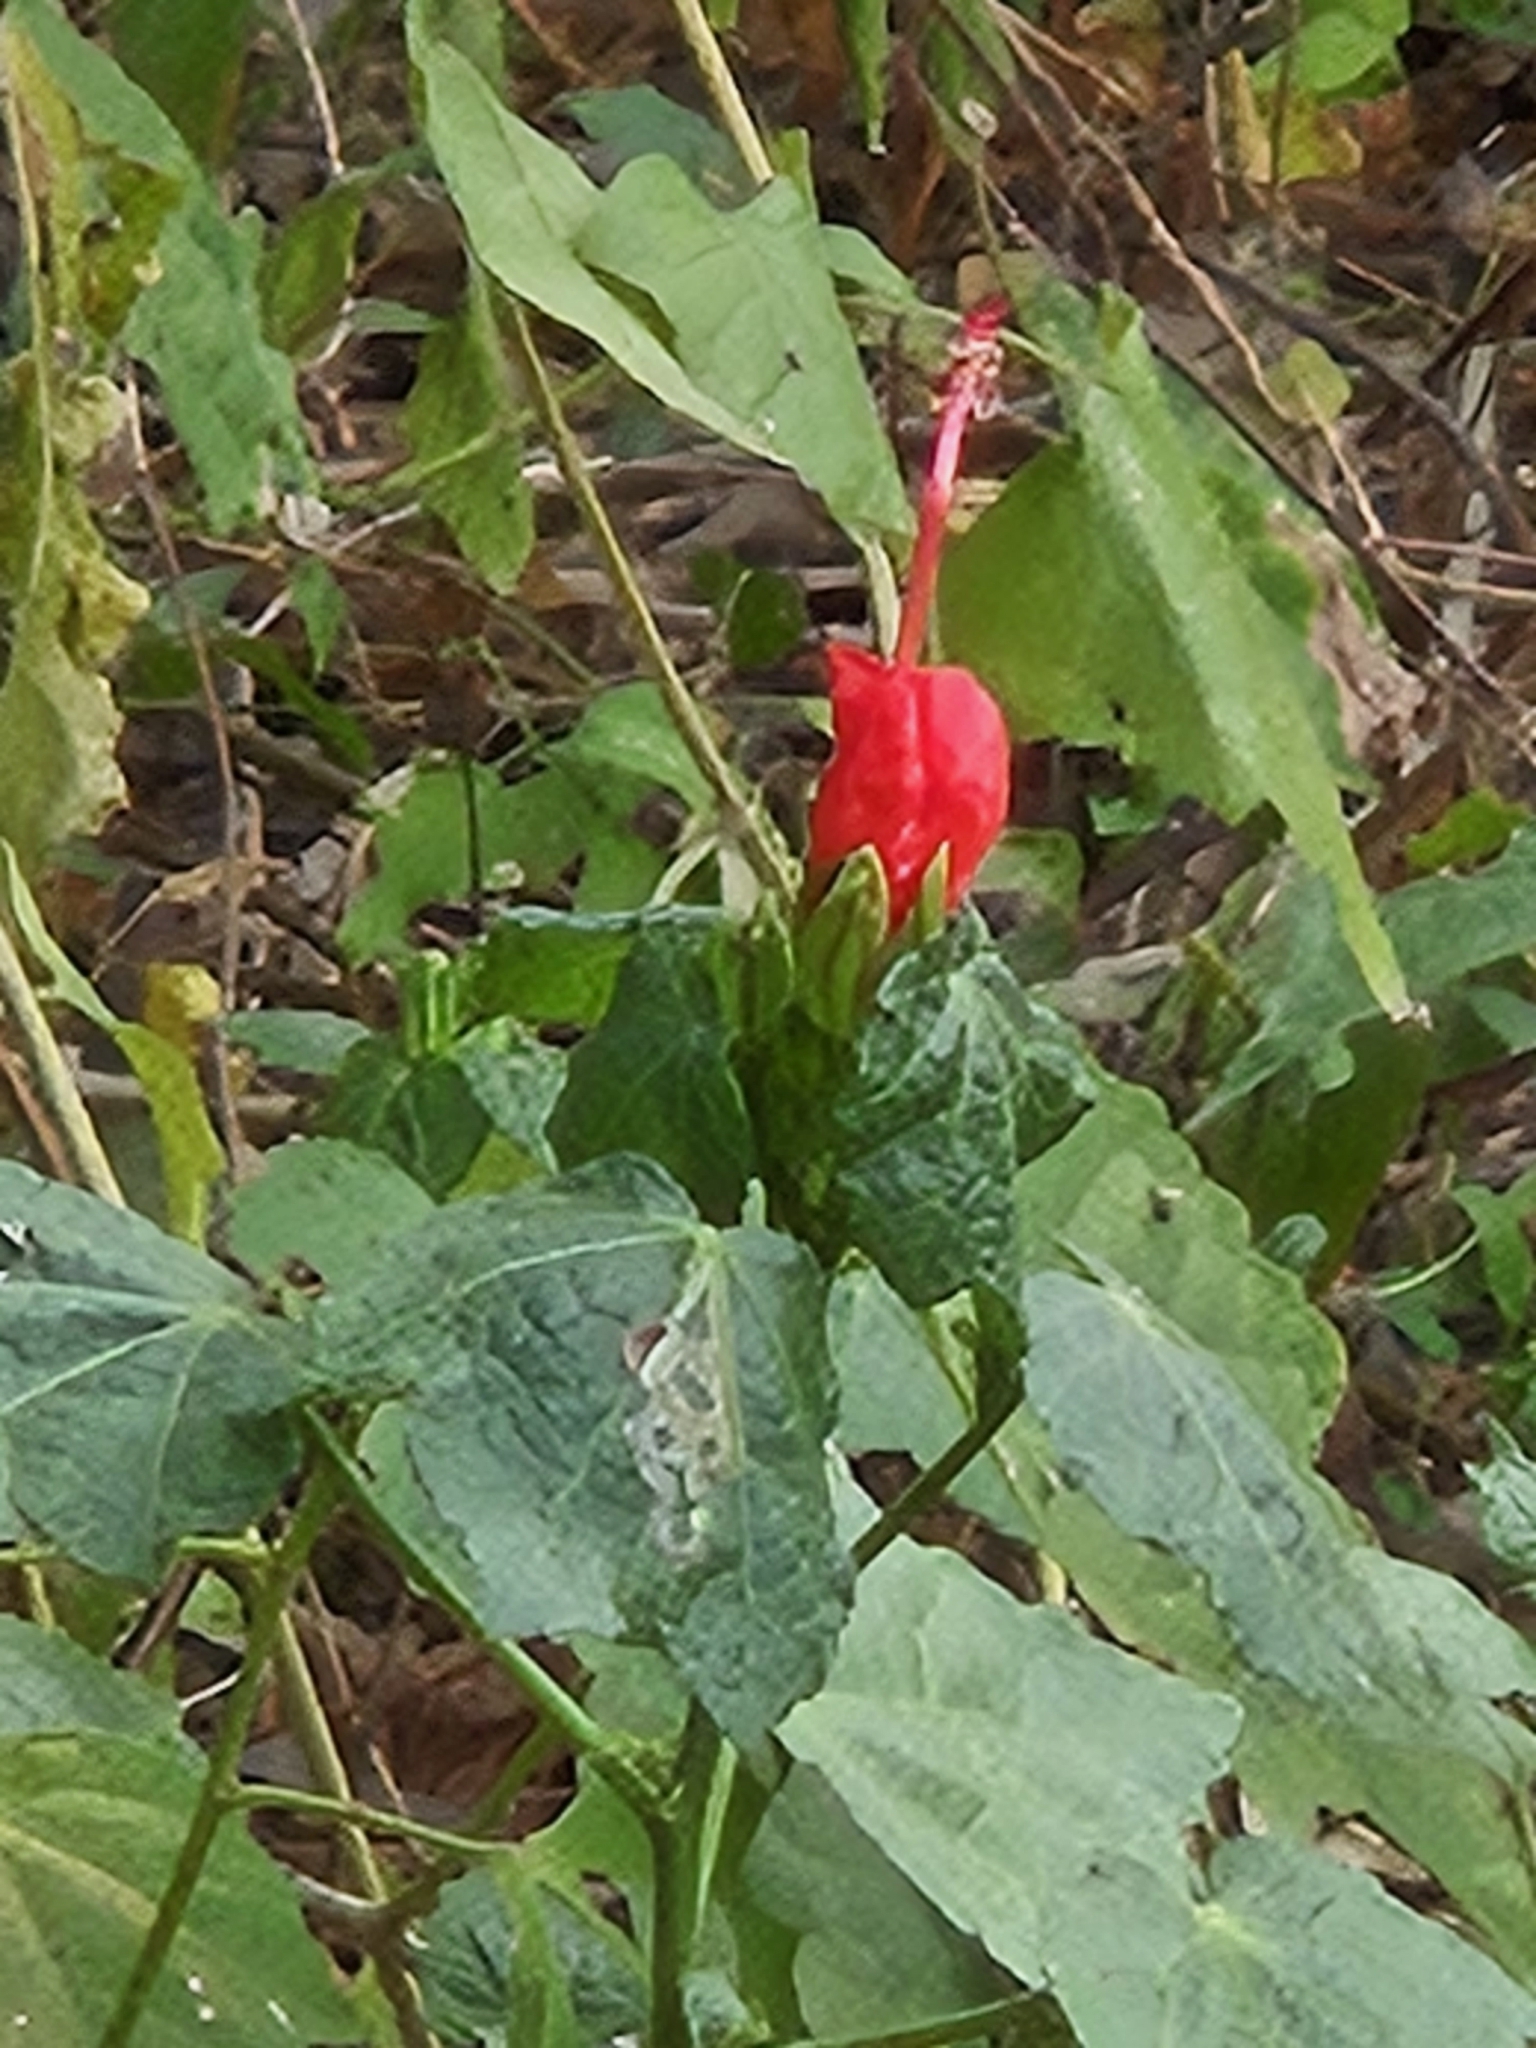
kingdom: Plantae
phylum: Tracheophyta
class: Magnoliopsida
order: Malvales
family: Malvaceae
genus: Malvaviscus
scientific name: Malvaviscus arboreus
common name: Wax mallow
